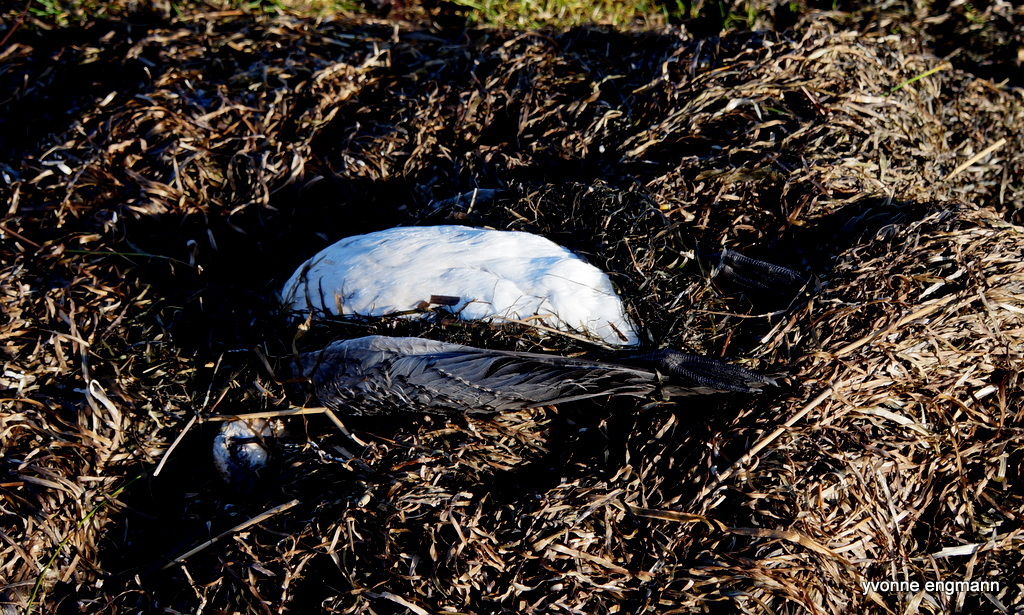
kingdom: Animalia
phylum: Chordata
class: Aves
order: Anseriformes
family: Anatidae
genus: Branta
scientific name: Branta leucopsis
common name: Barnacle goose
